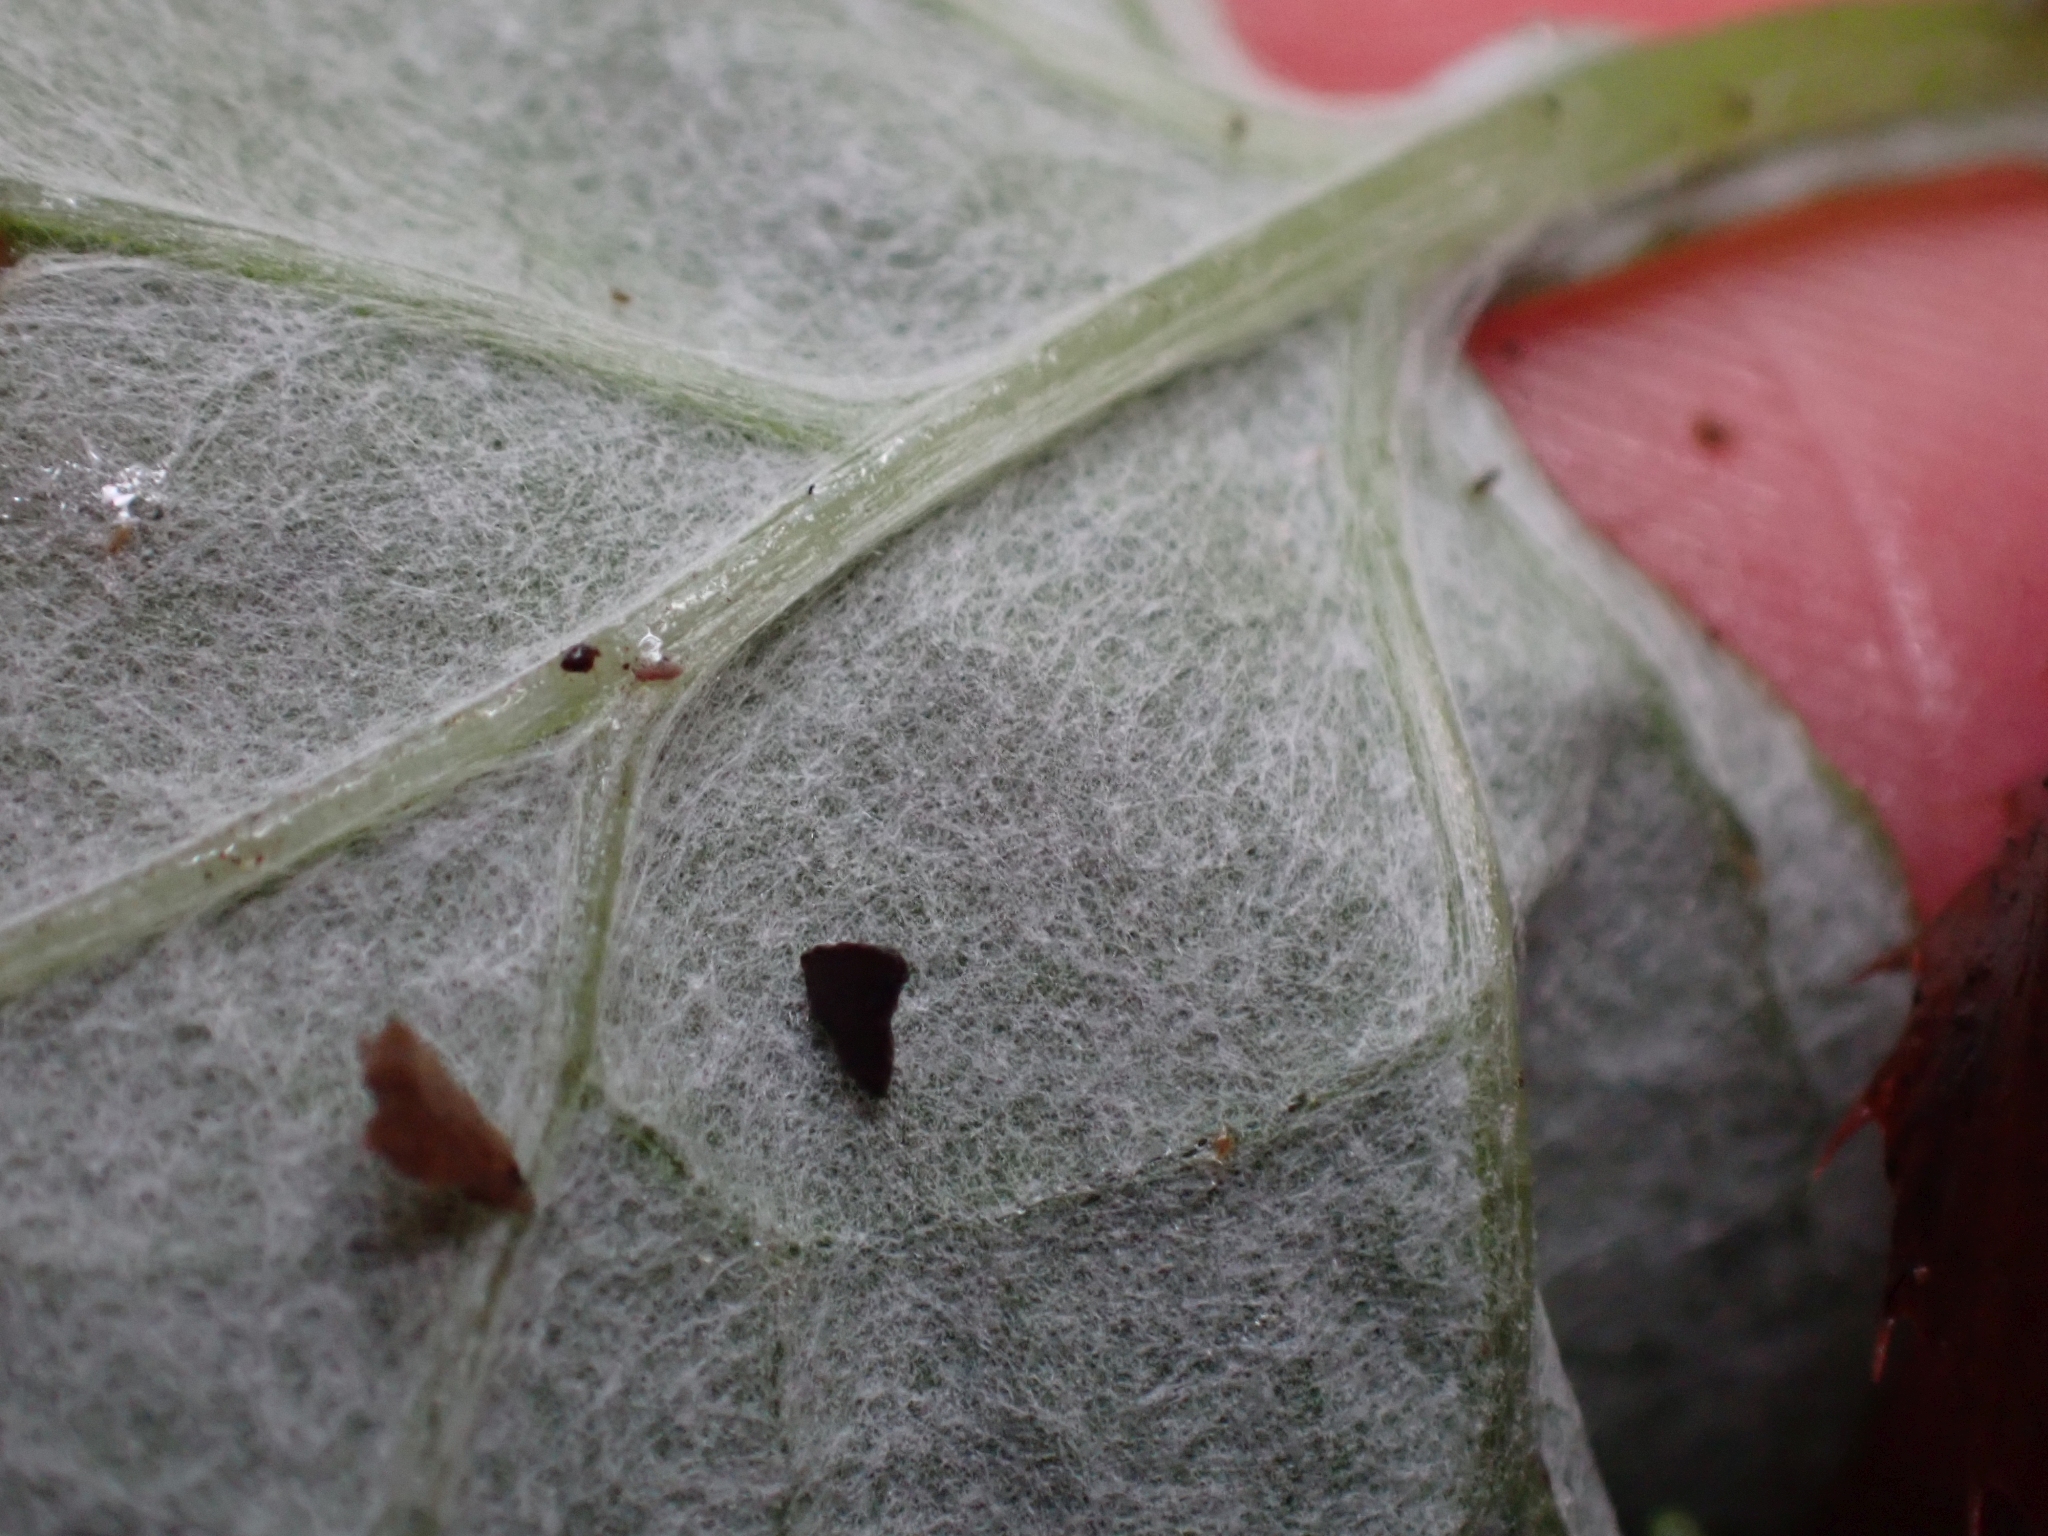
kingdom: Plantae
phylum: Tracheophyta
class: Magnoliopsida
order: Asterales
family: Asteraceae
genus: Adenocaulon
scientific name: Adenocaulon bicolor
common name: Trailplant
